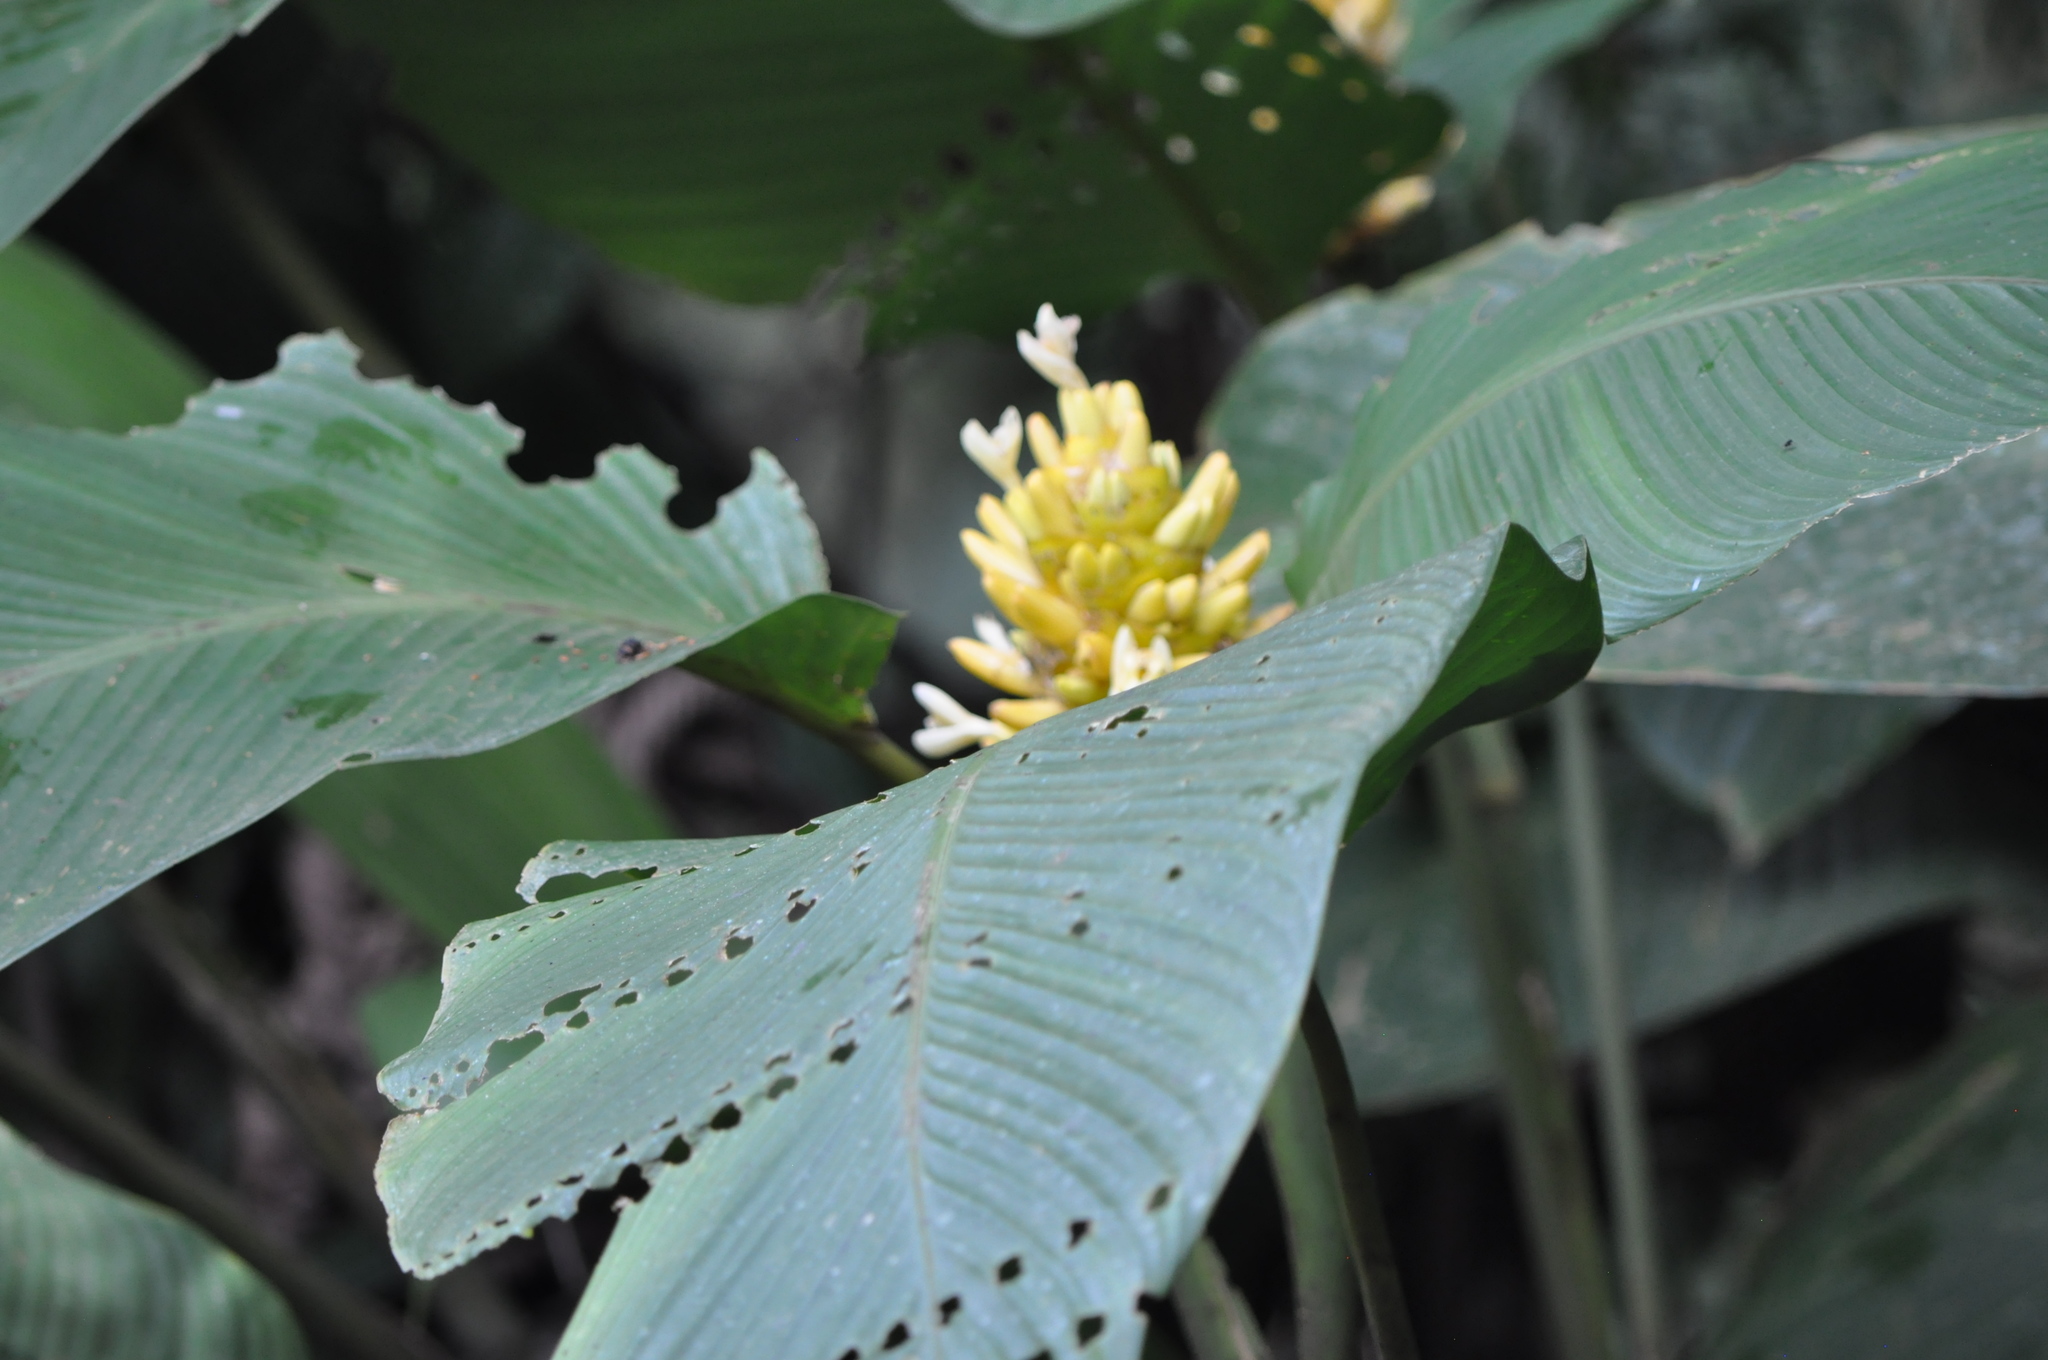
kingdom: Plantae
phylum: Tracheophyta
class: Liliopsida
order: Zingiberales
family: Marantaceae
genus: Goeppertia
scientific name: Goeppertia marantifolia
